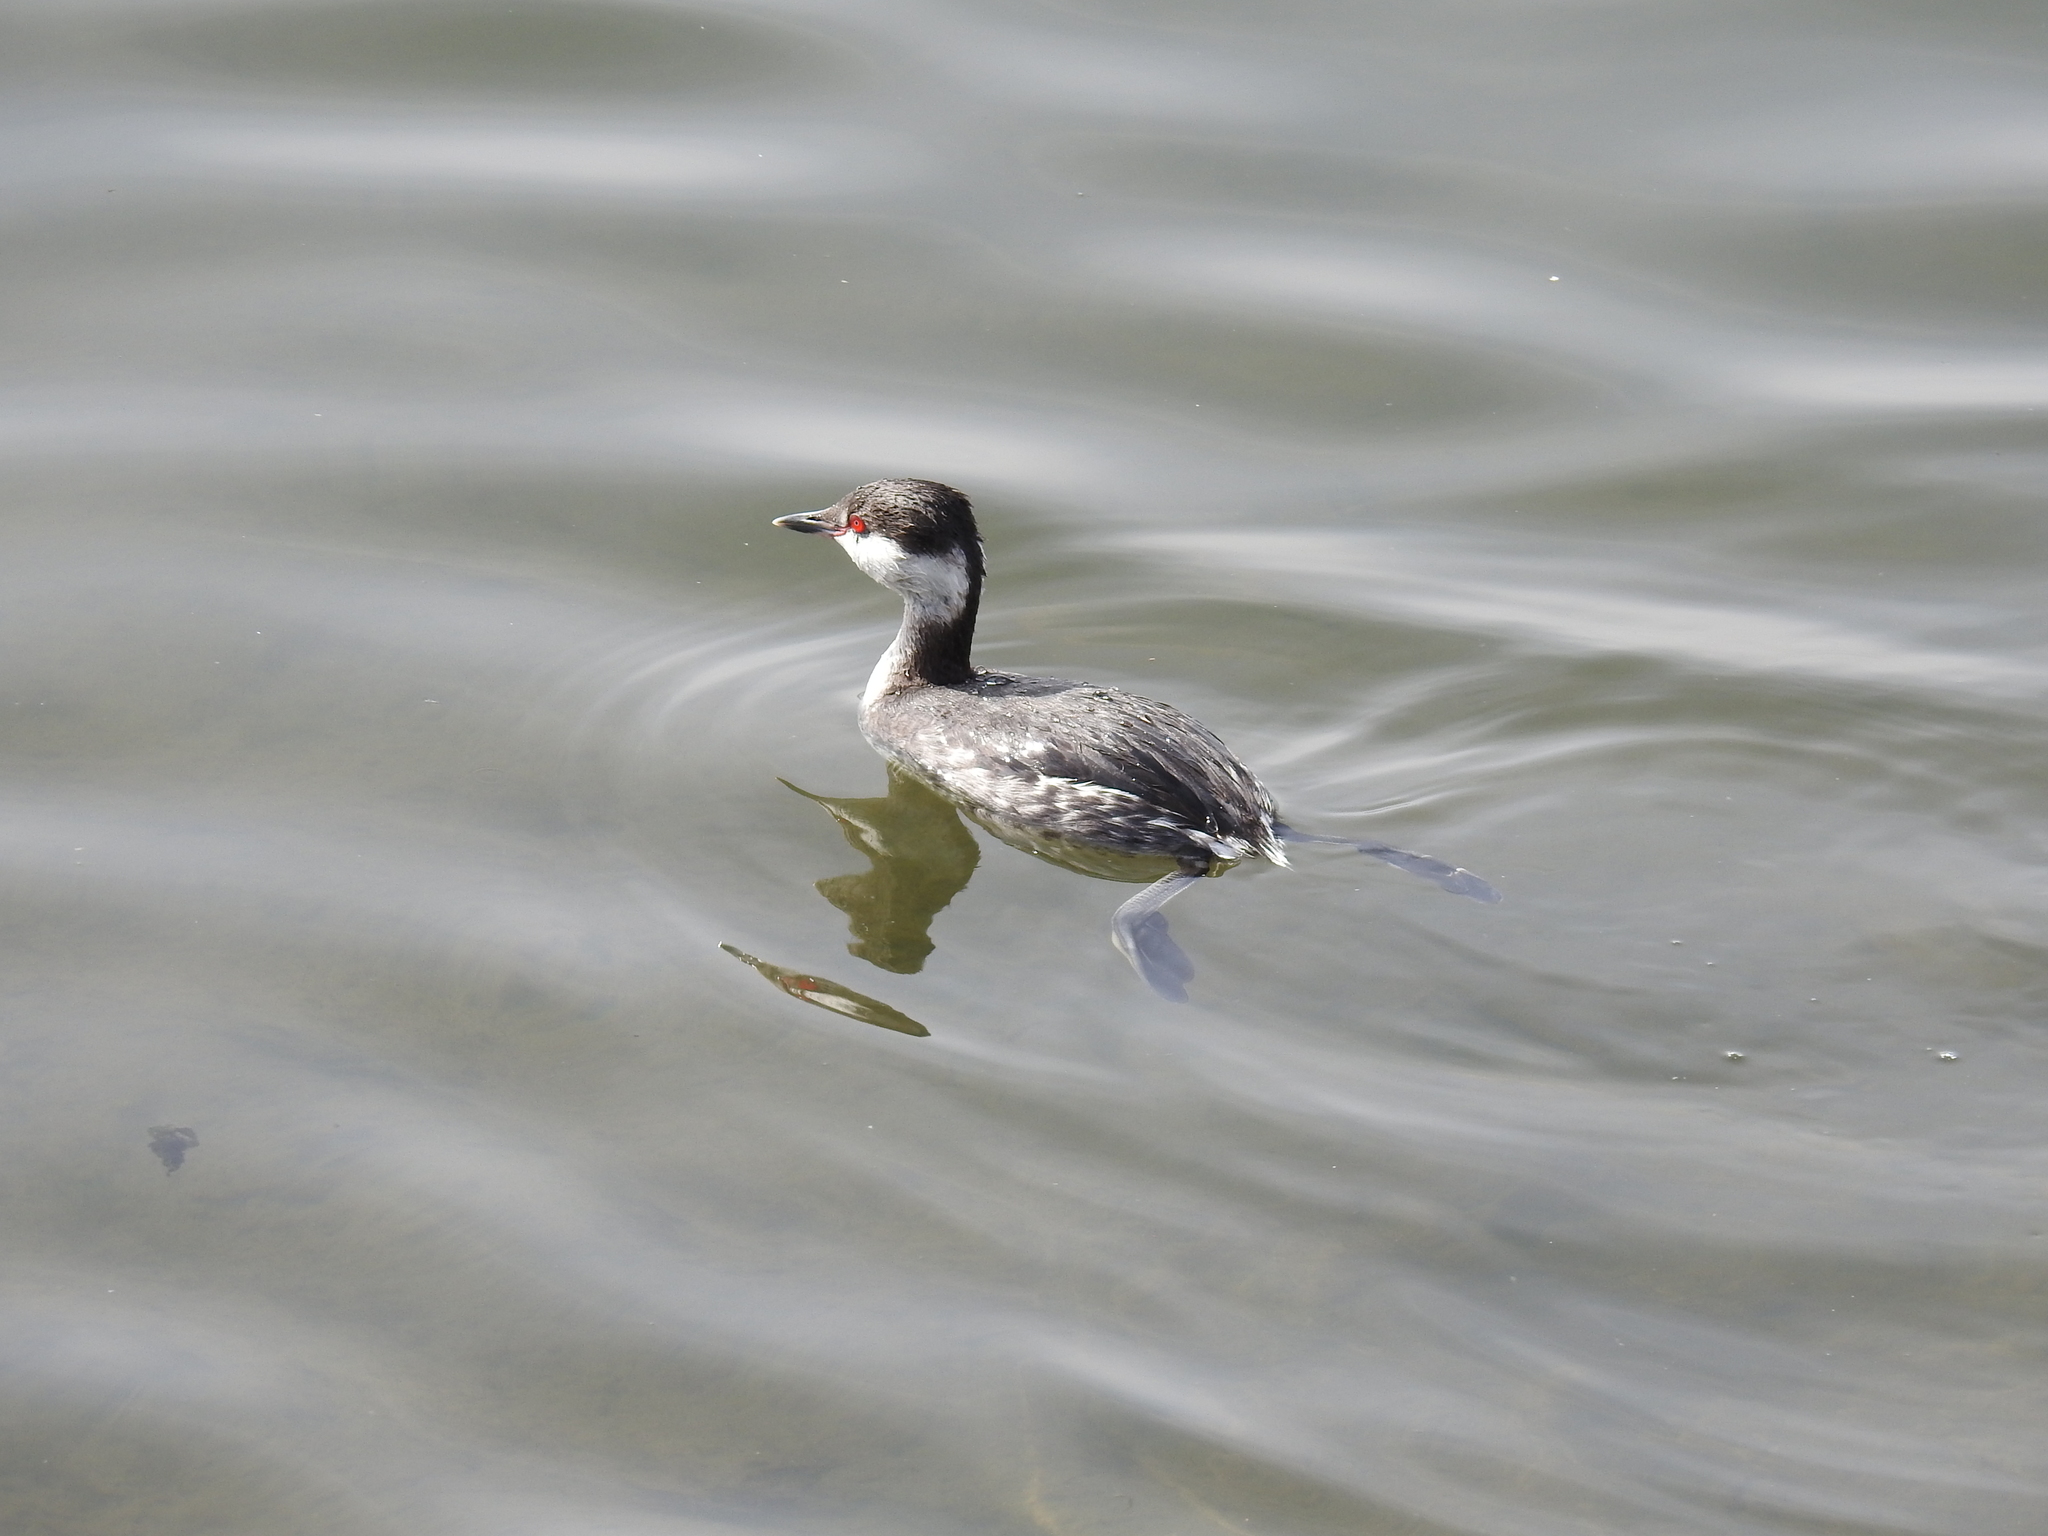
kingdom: Animalia
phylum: Chordata
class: Aves
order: Podicipediformes
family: Podicipedidae
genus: Podiceps
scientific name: Podiceps auritus
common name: Horned grebe
